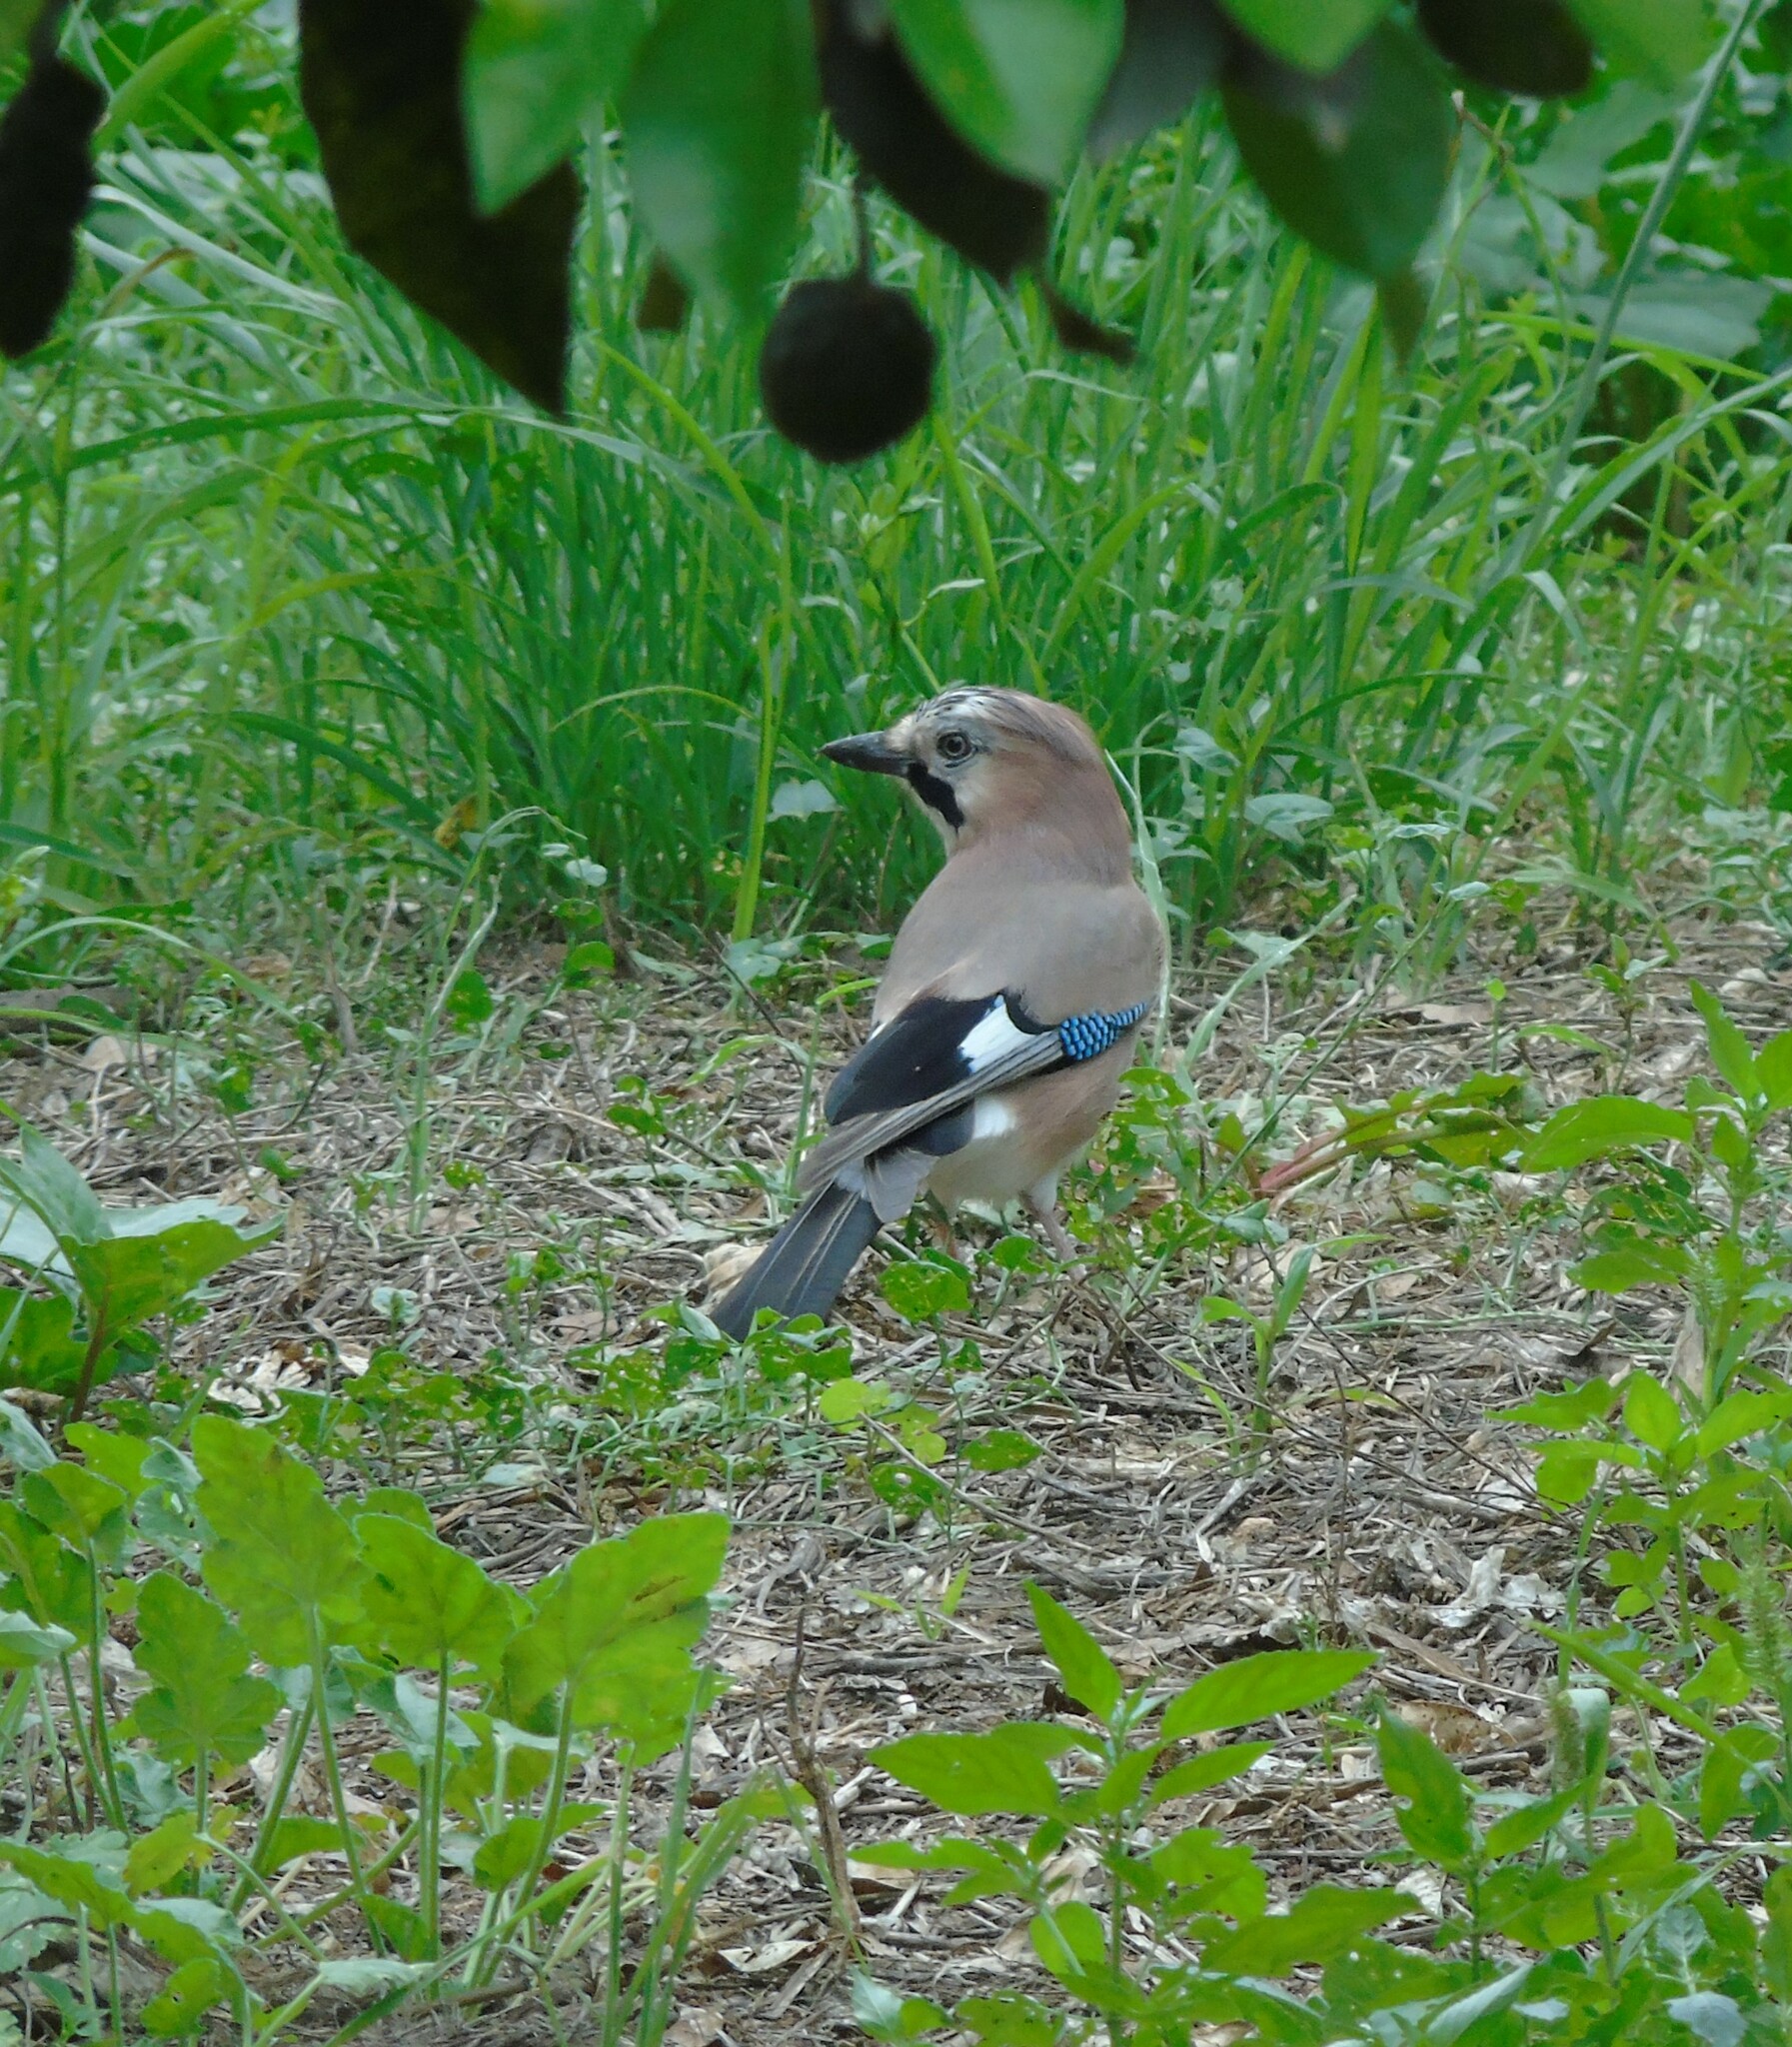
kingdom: Animalia
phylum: Chordata
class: Aves
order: Passeriformes
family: Corvidae
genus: Garrulus
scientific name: Garrulus glandarius
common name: Eurasian jay
